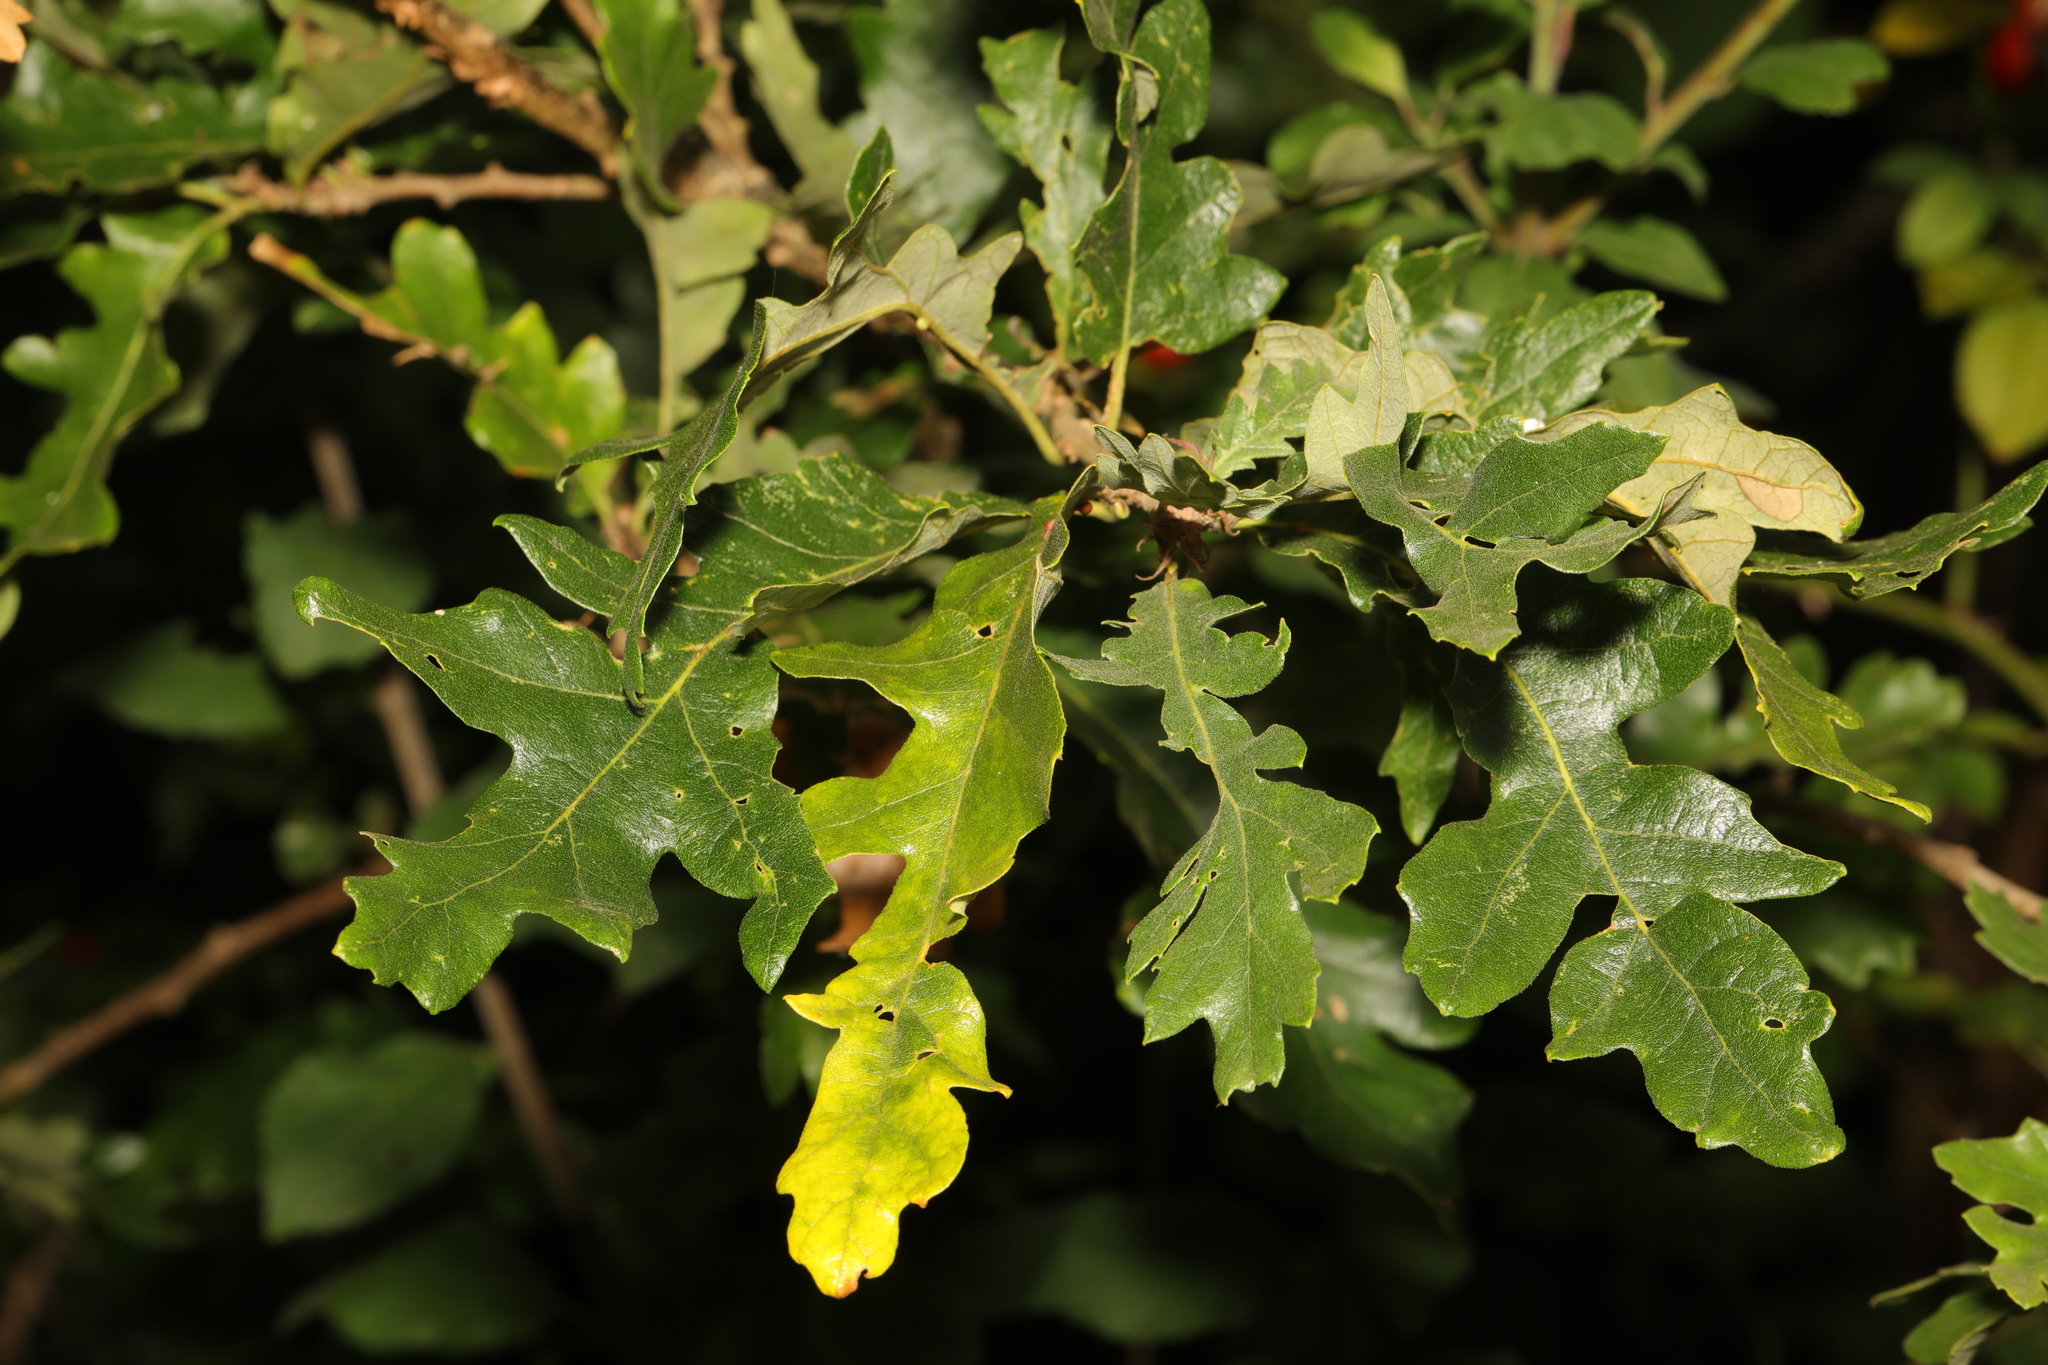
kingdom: Plantae
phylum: Tracheophyta
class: Magnoliopsida
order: Fagales
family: Fagaceae
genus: Quercus
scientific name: Quercus cerris
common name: Turkey oak
